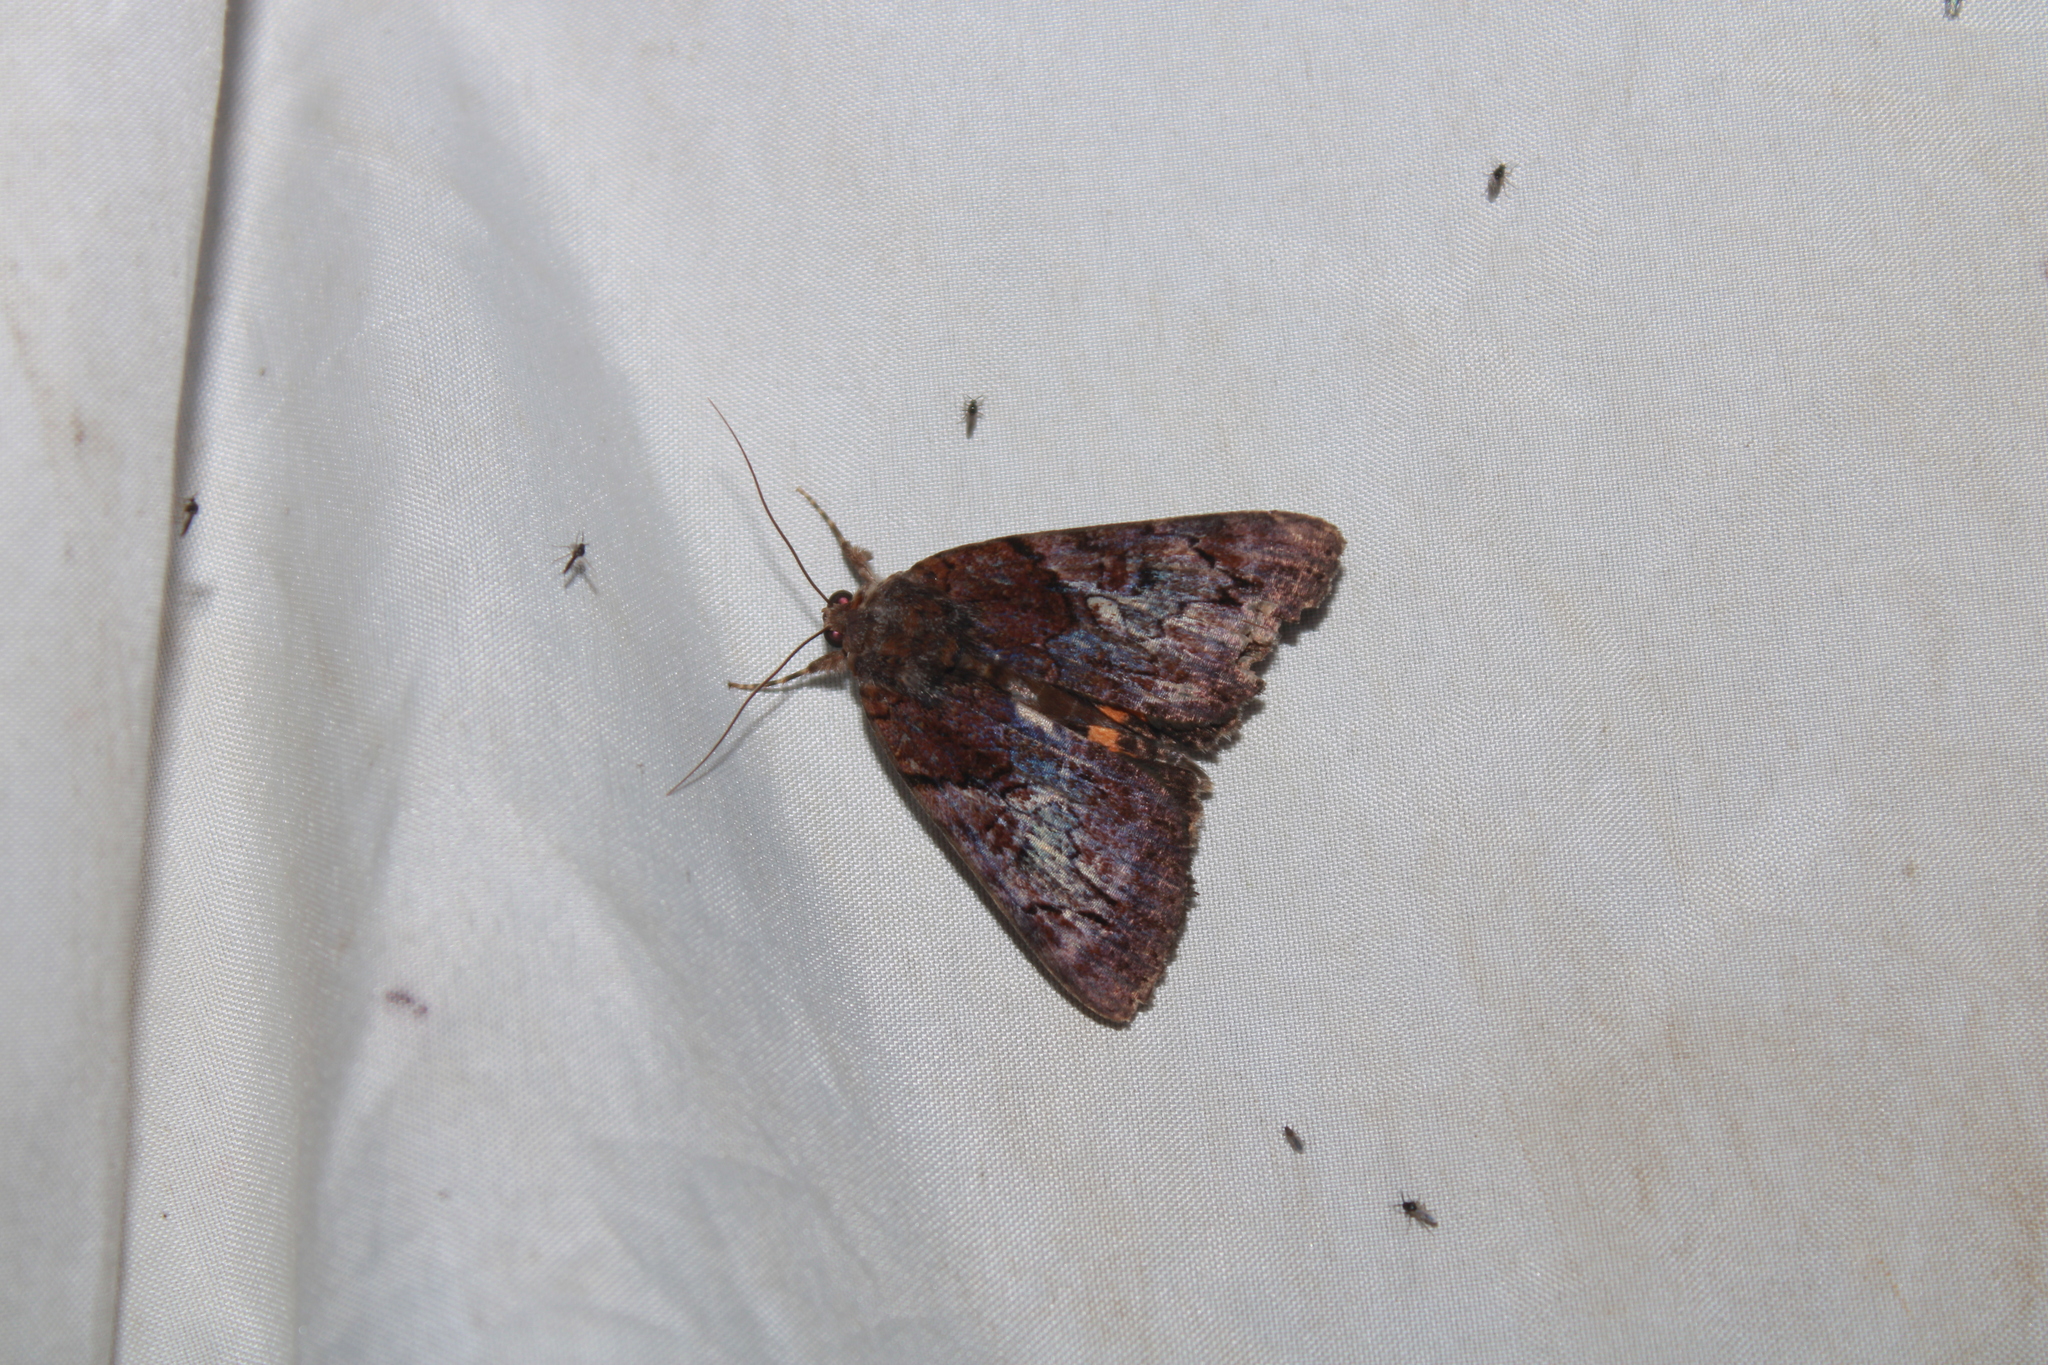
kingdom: Animalia
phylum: Arthropoda
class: Insecta
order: Lepidoptera
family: Erebidae
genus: Catocala
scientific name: Catocala muliercula
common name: The little wife underwing
